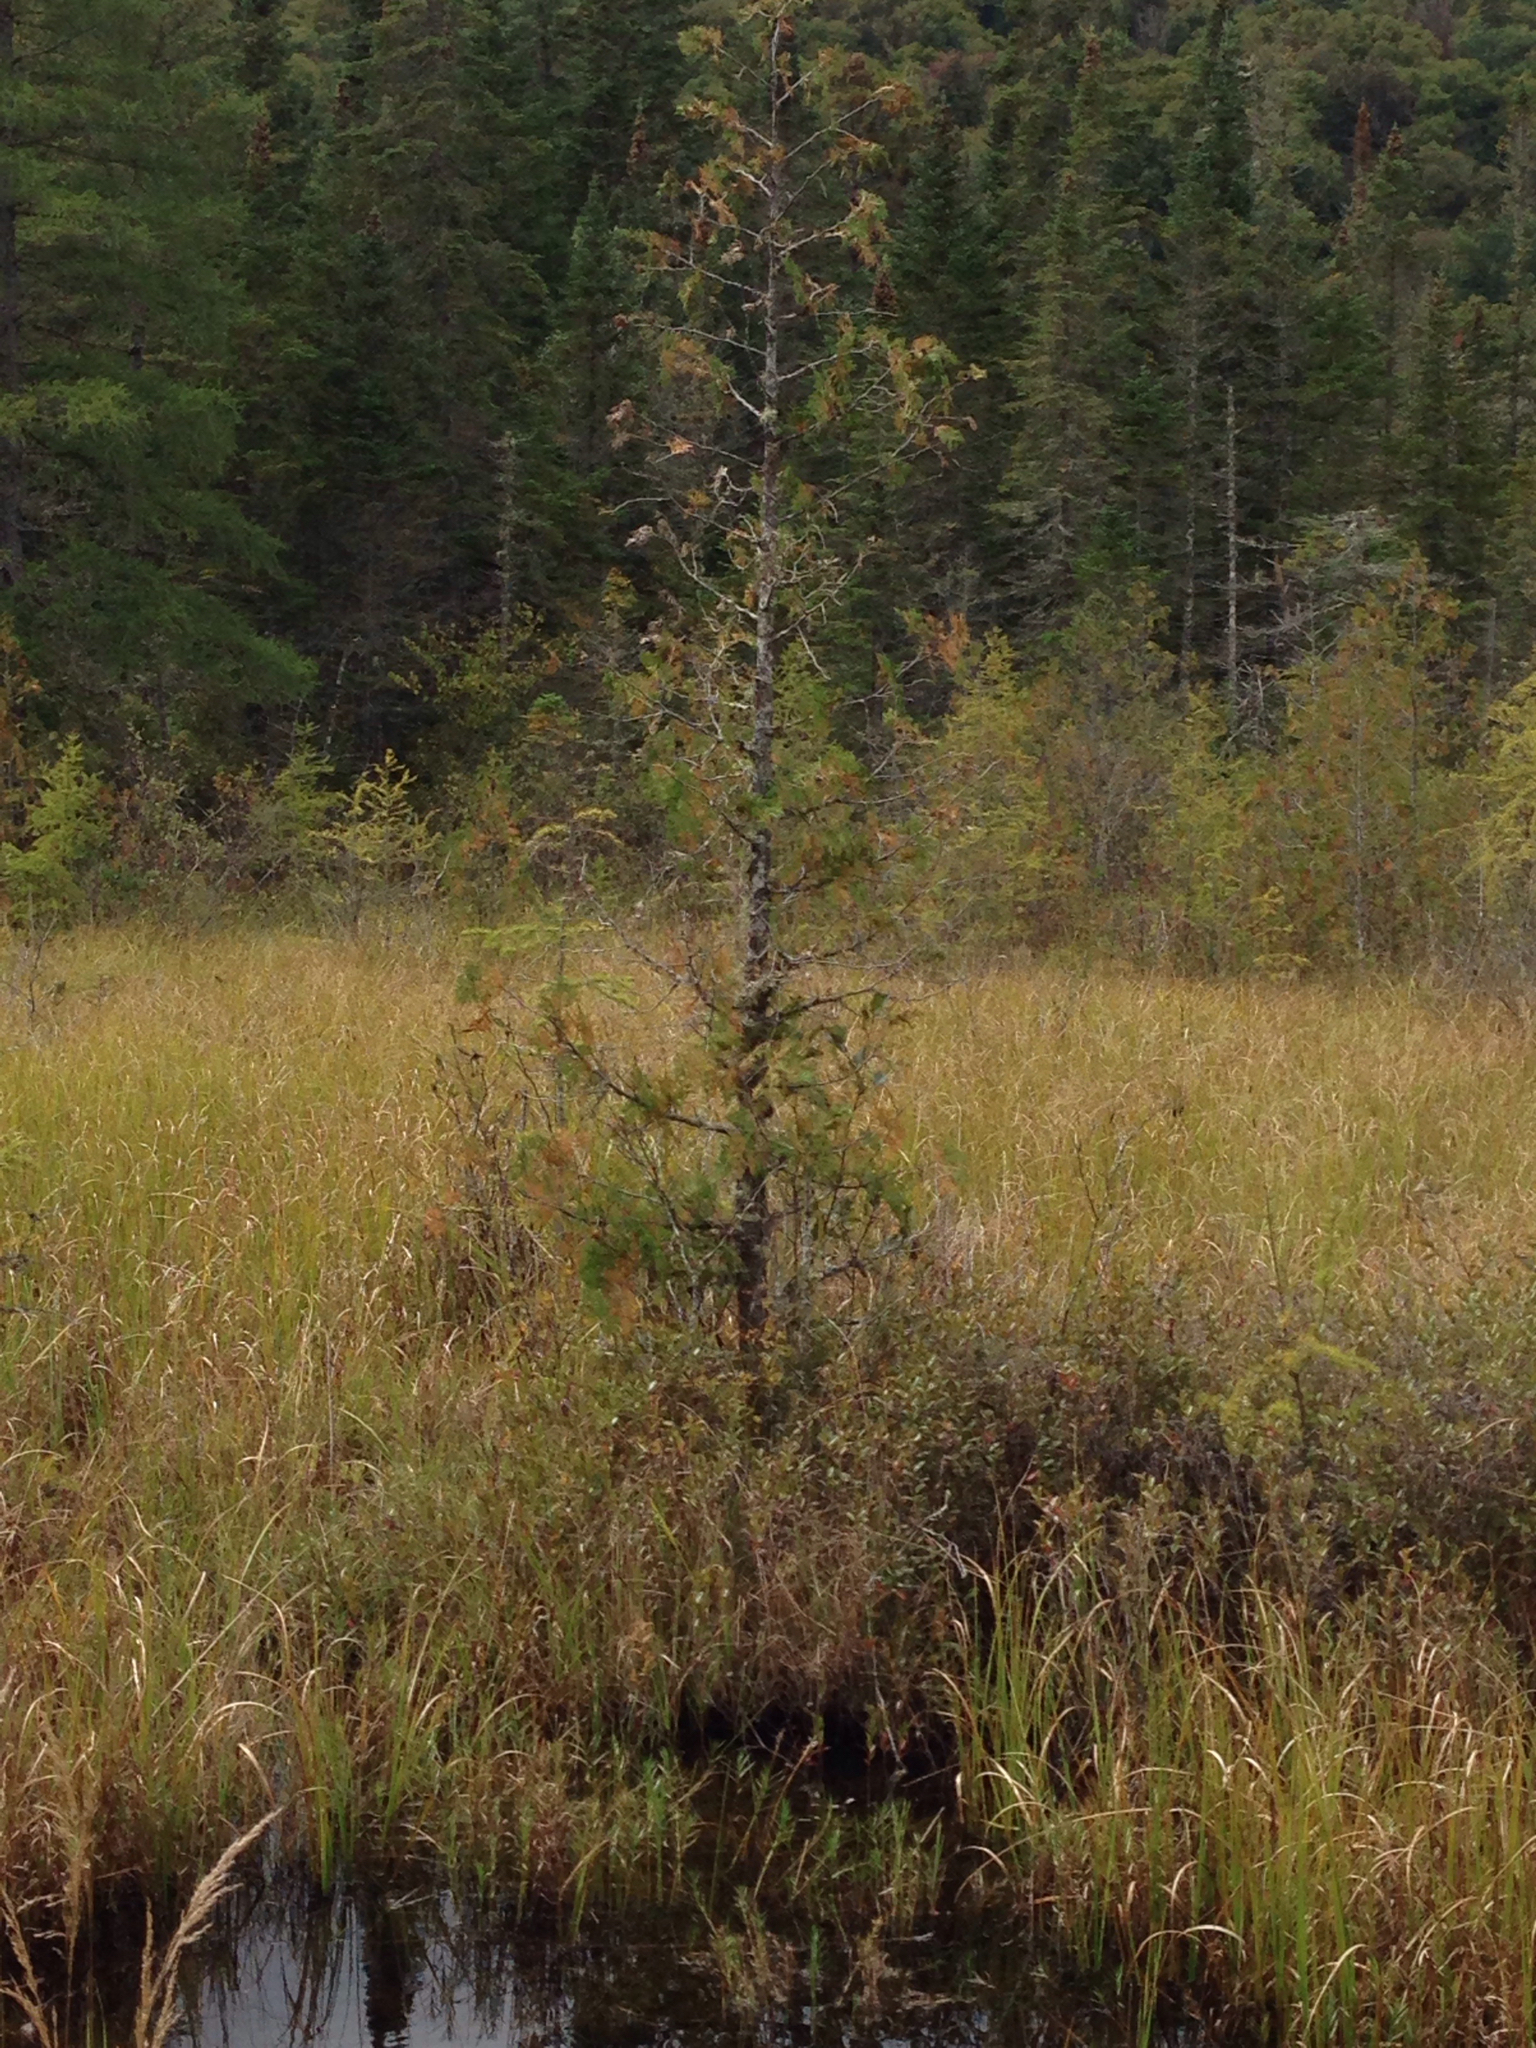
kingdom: Plantae
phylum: Tracheophyta
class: Pinopsida
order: Pinales
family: Cupressaceae
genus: Thuja
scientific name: Thuja occidentalis
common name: Northern white-cedar
